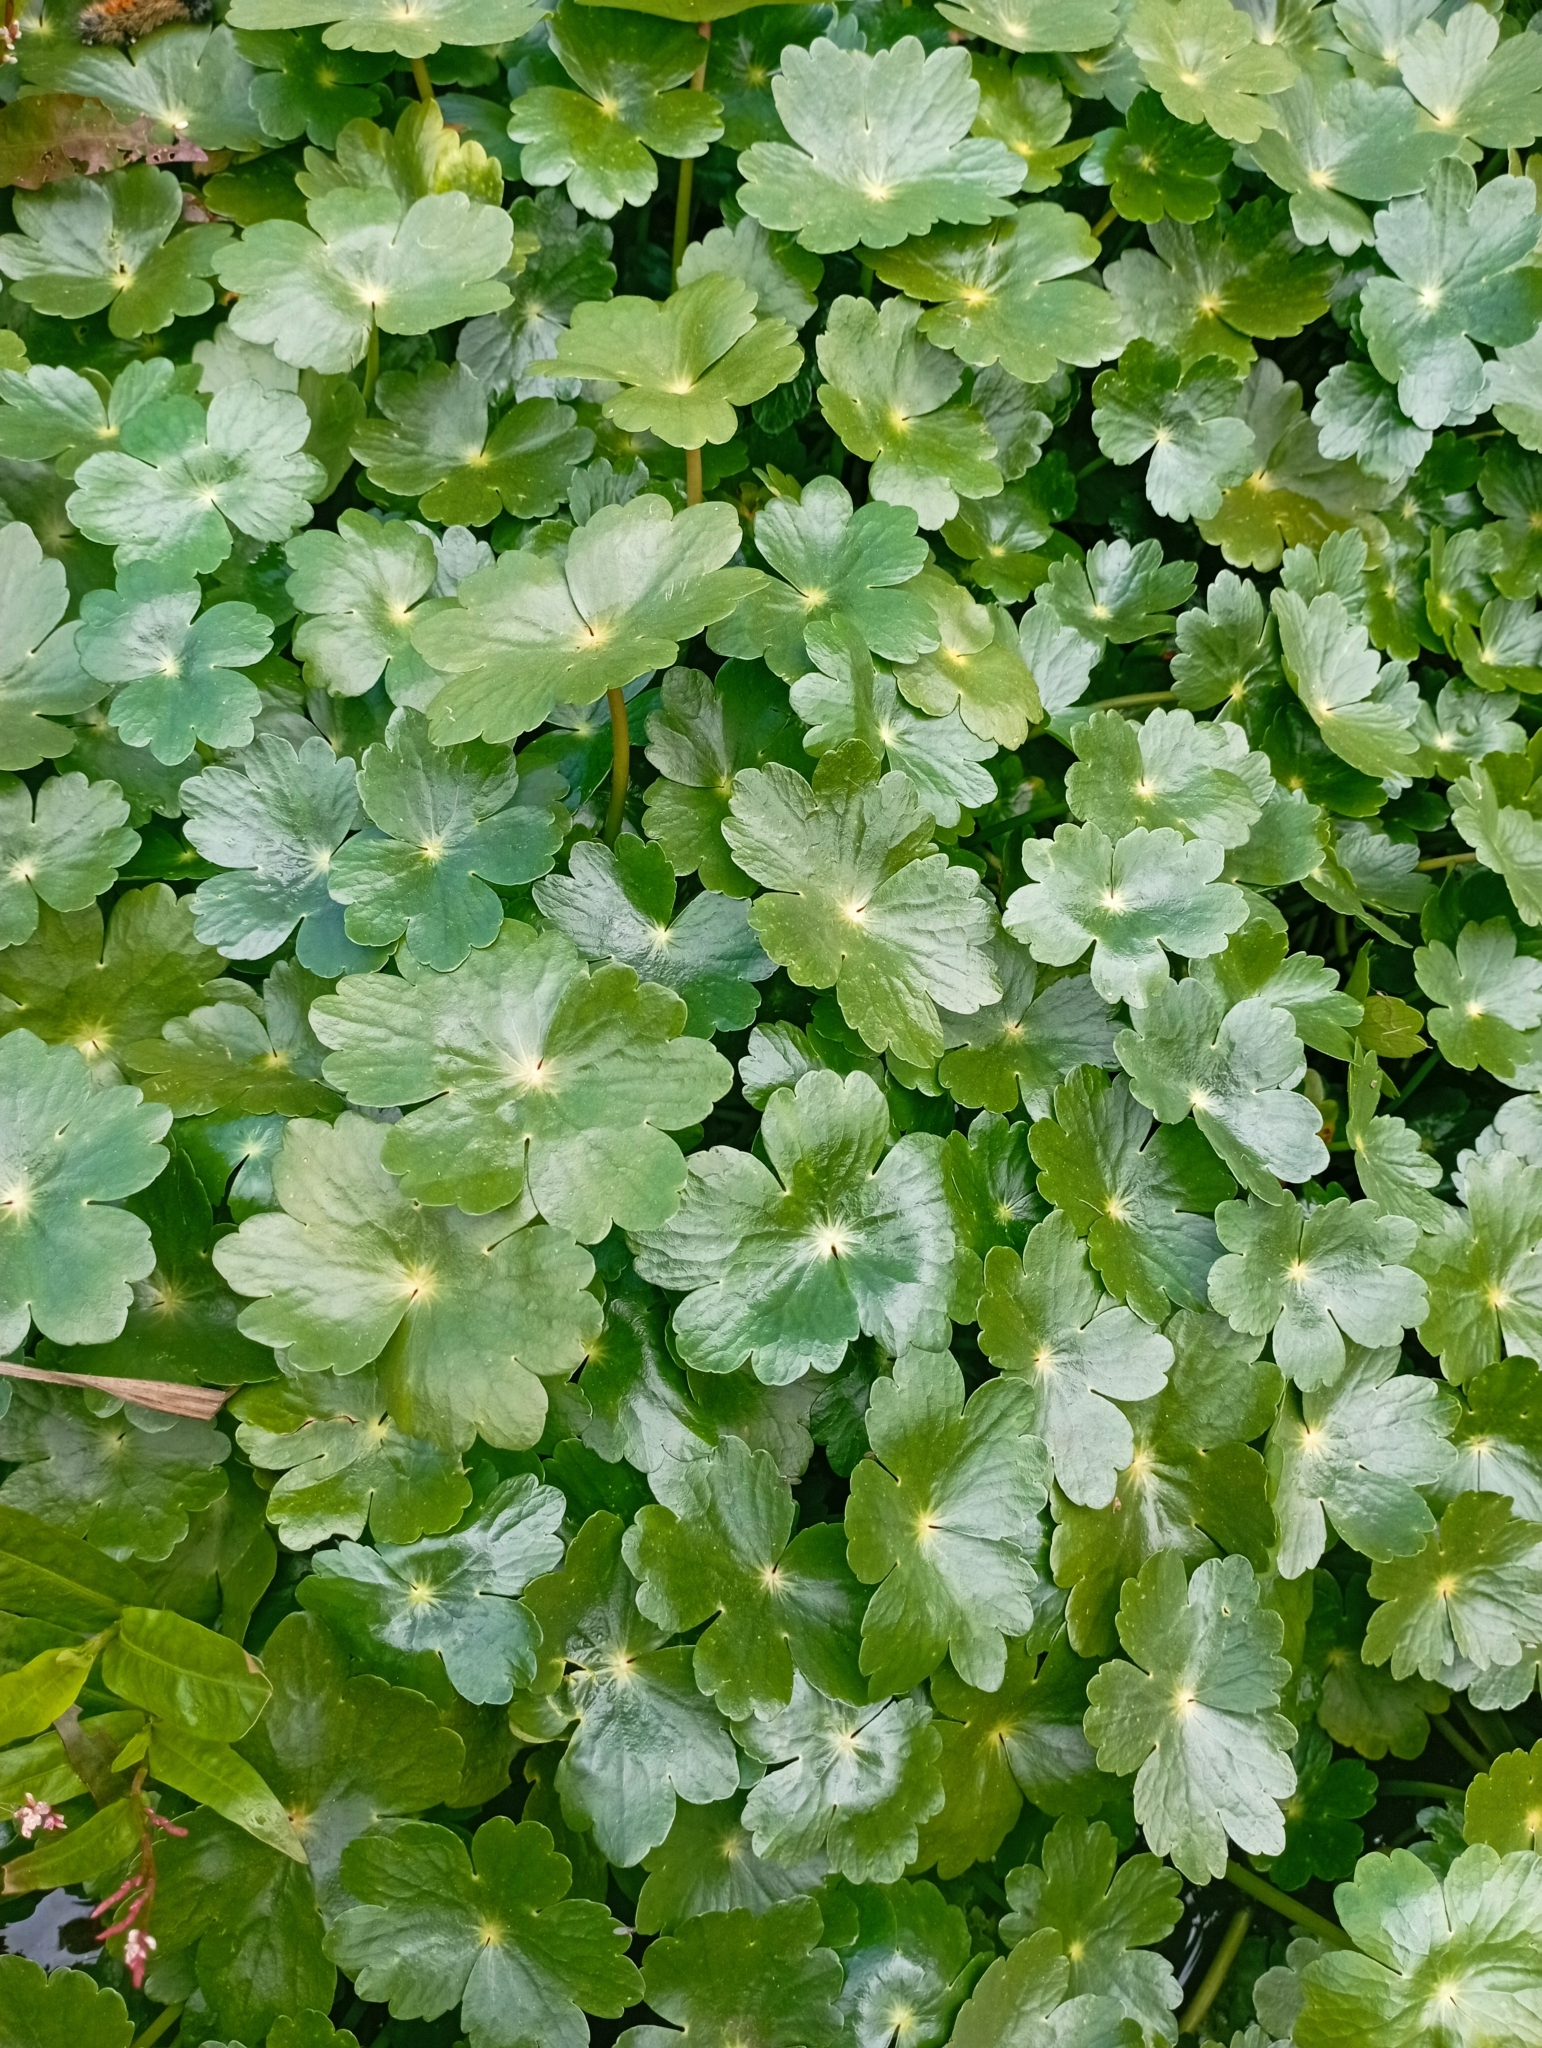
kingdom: Plantae
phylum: Tracheophyta
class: Magnoliopsida
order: Apiales
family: Araliaceae
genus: Hydrocotyle
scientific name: Hydrocotyle ranunculoides
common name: Floating pennywort
